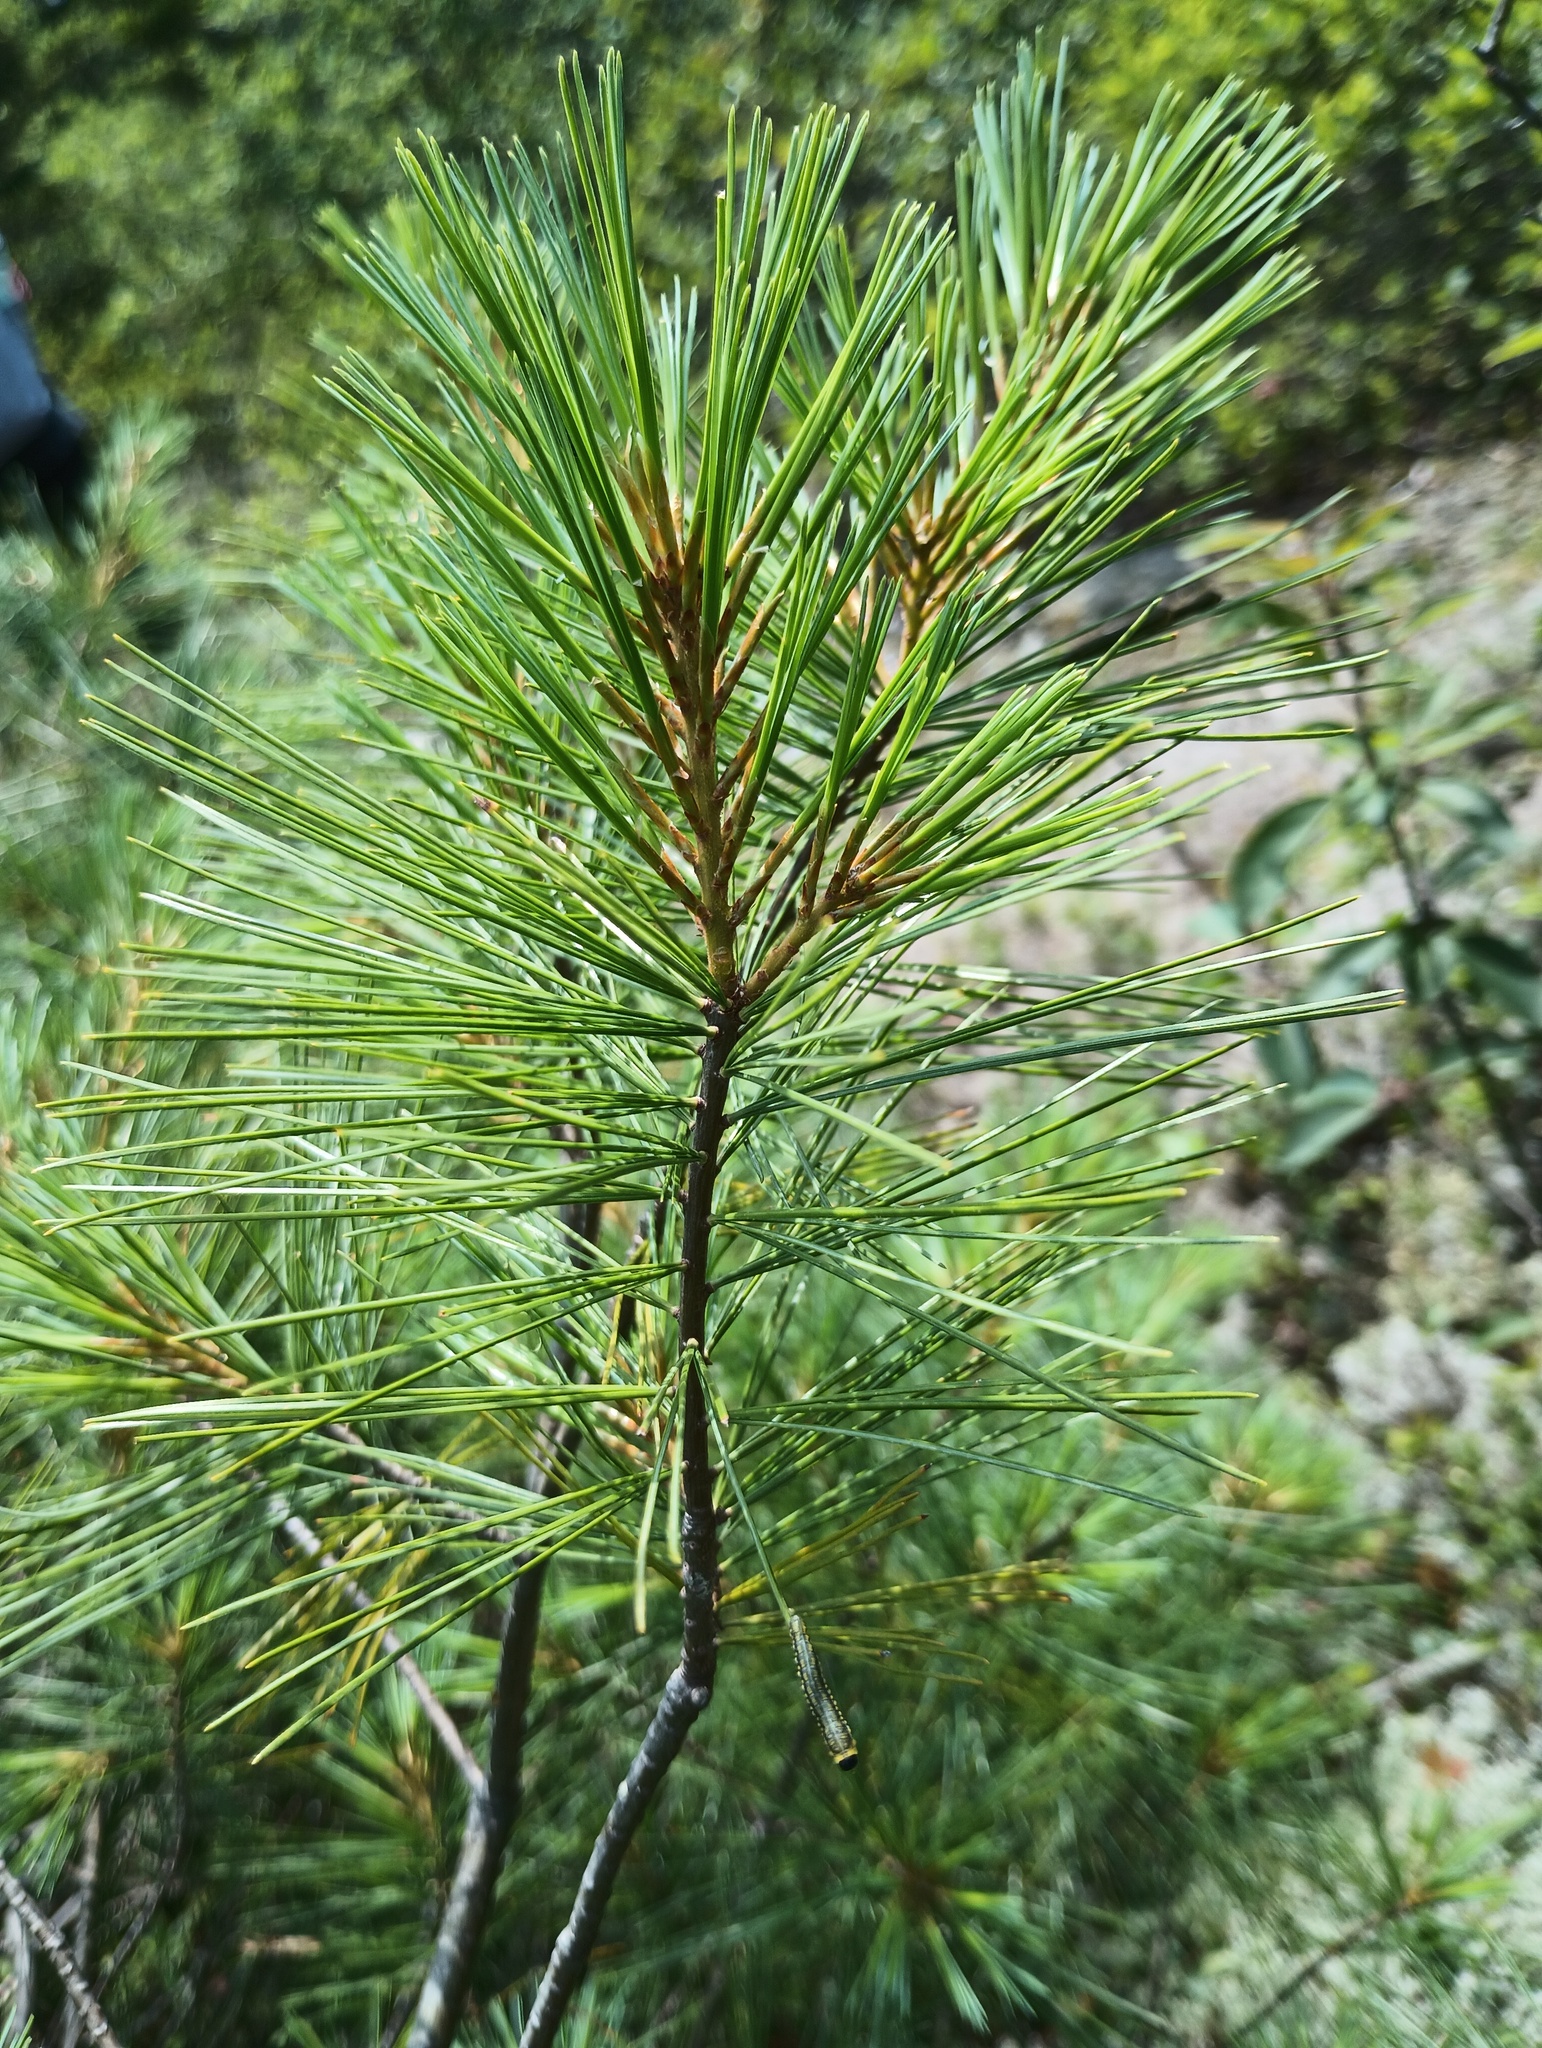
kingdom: Plantae
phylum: Tracheophyta
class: Pinopsida
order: Pinales
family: Pinaceae
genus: Pinus
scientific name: Pinus strobus
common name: Weymouth pine
